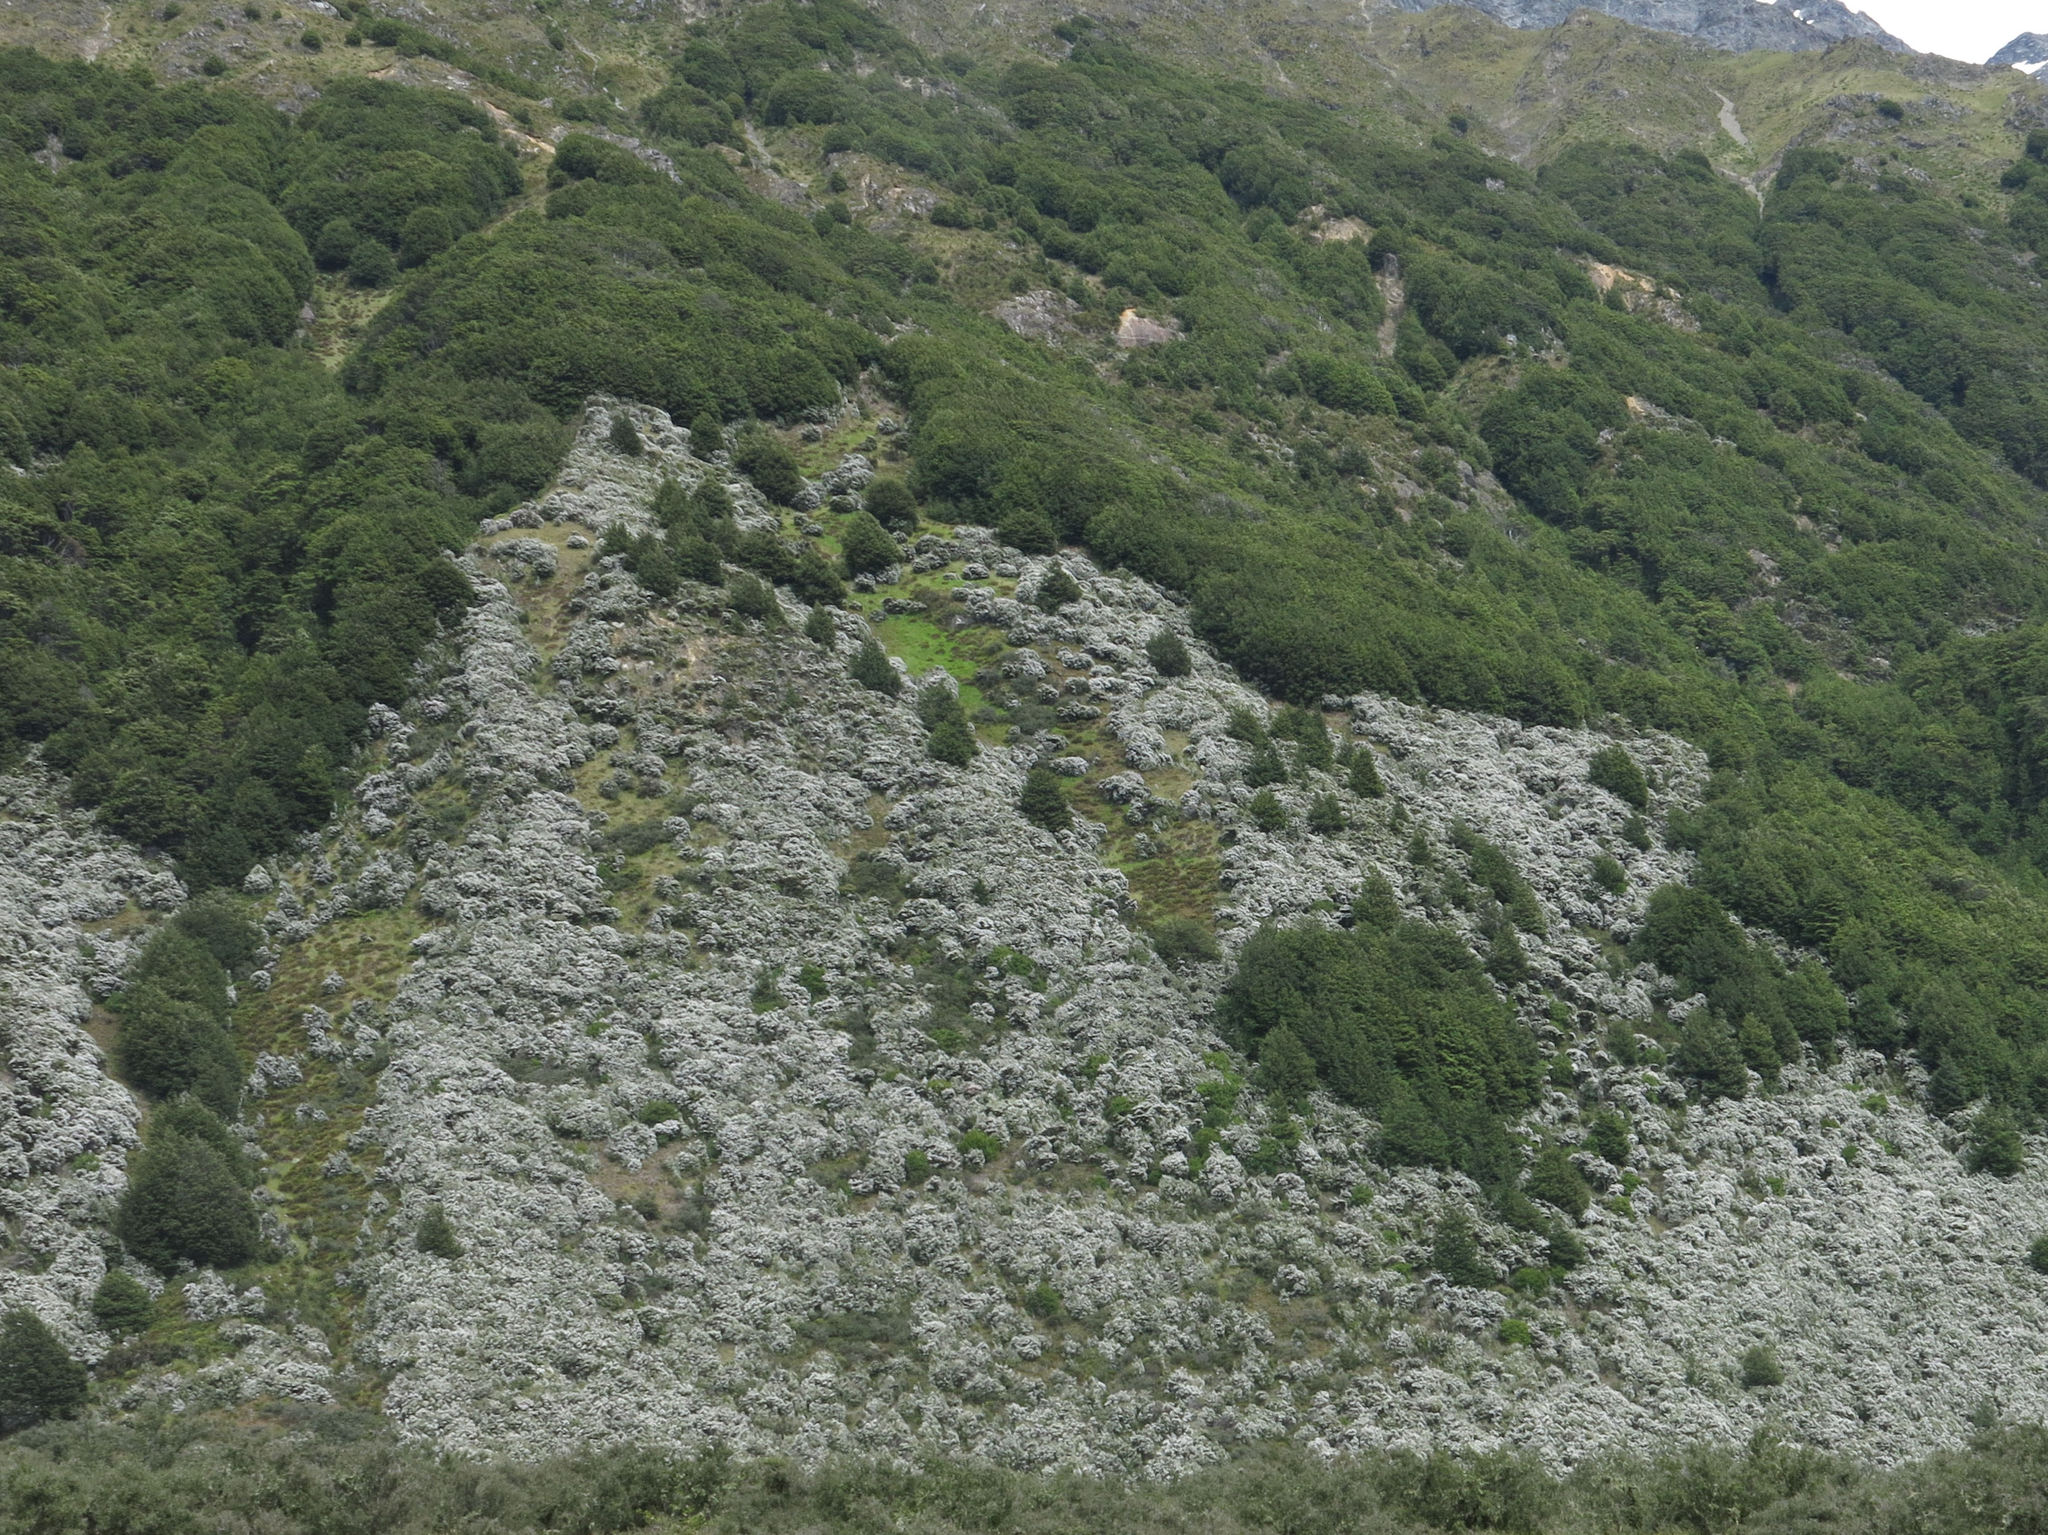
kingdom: Plantae
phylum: Tracheophyta
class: Magnoliopsida
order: Myrtales
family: Myrtaceae
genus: Leptospermum
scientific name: Leptospermum scoparium
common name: Broom tea-tree
